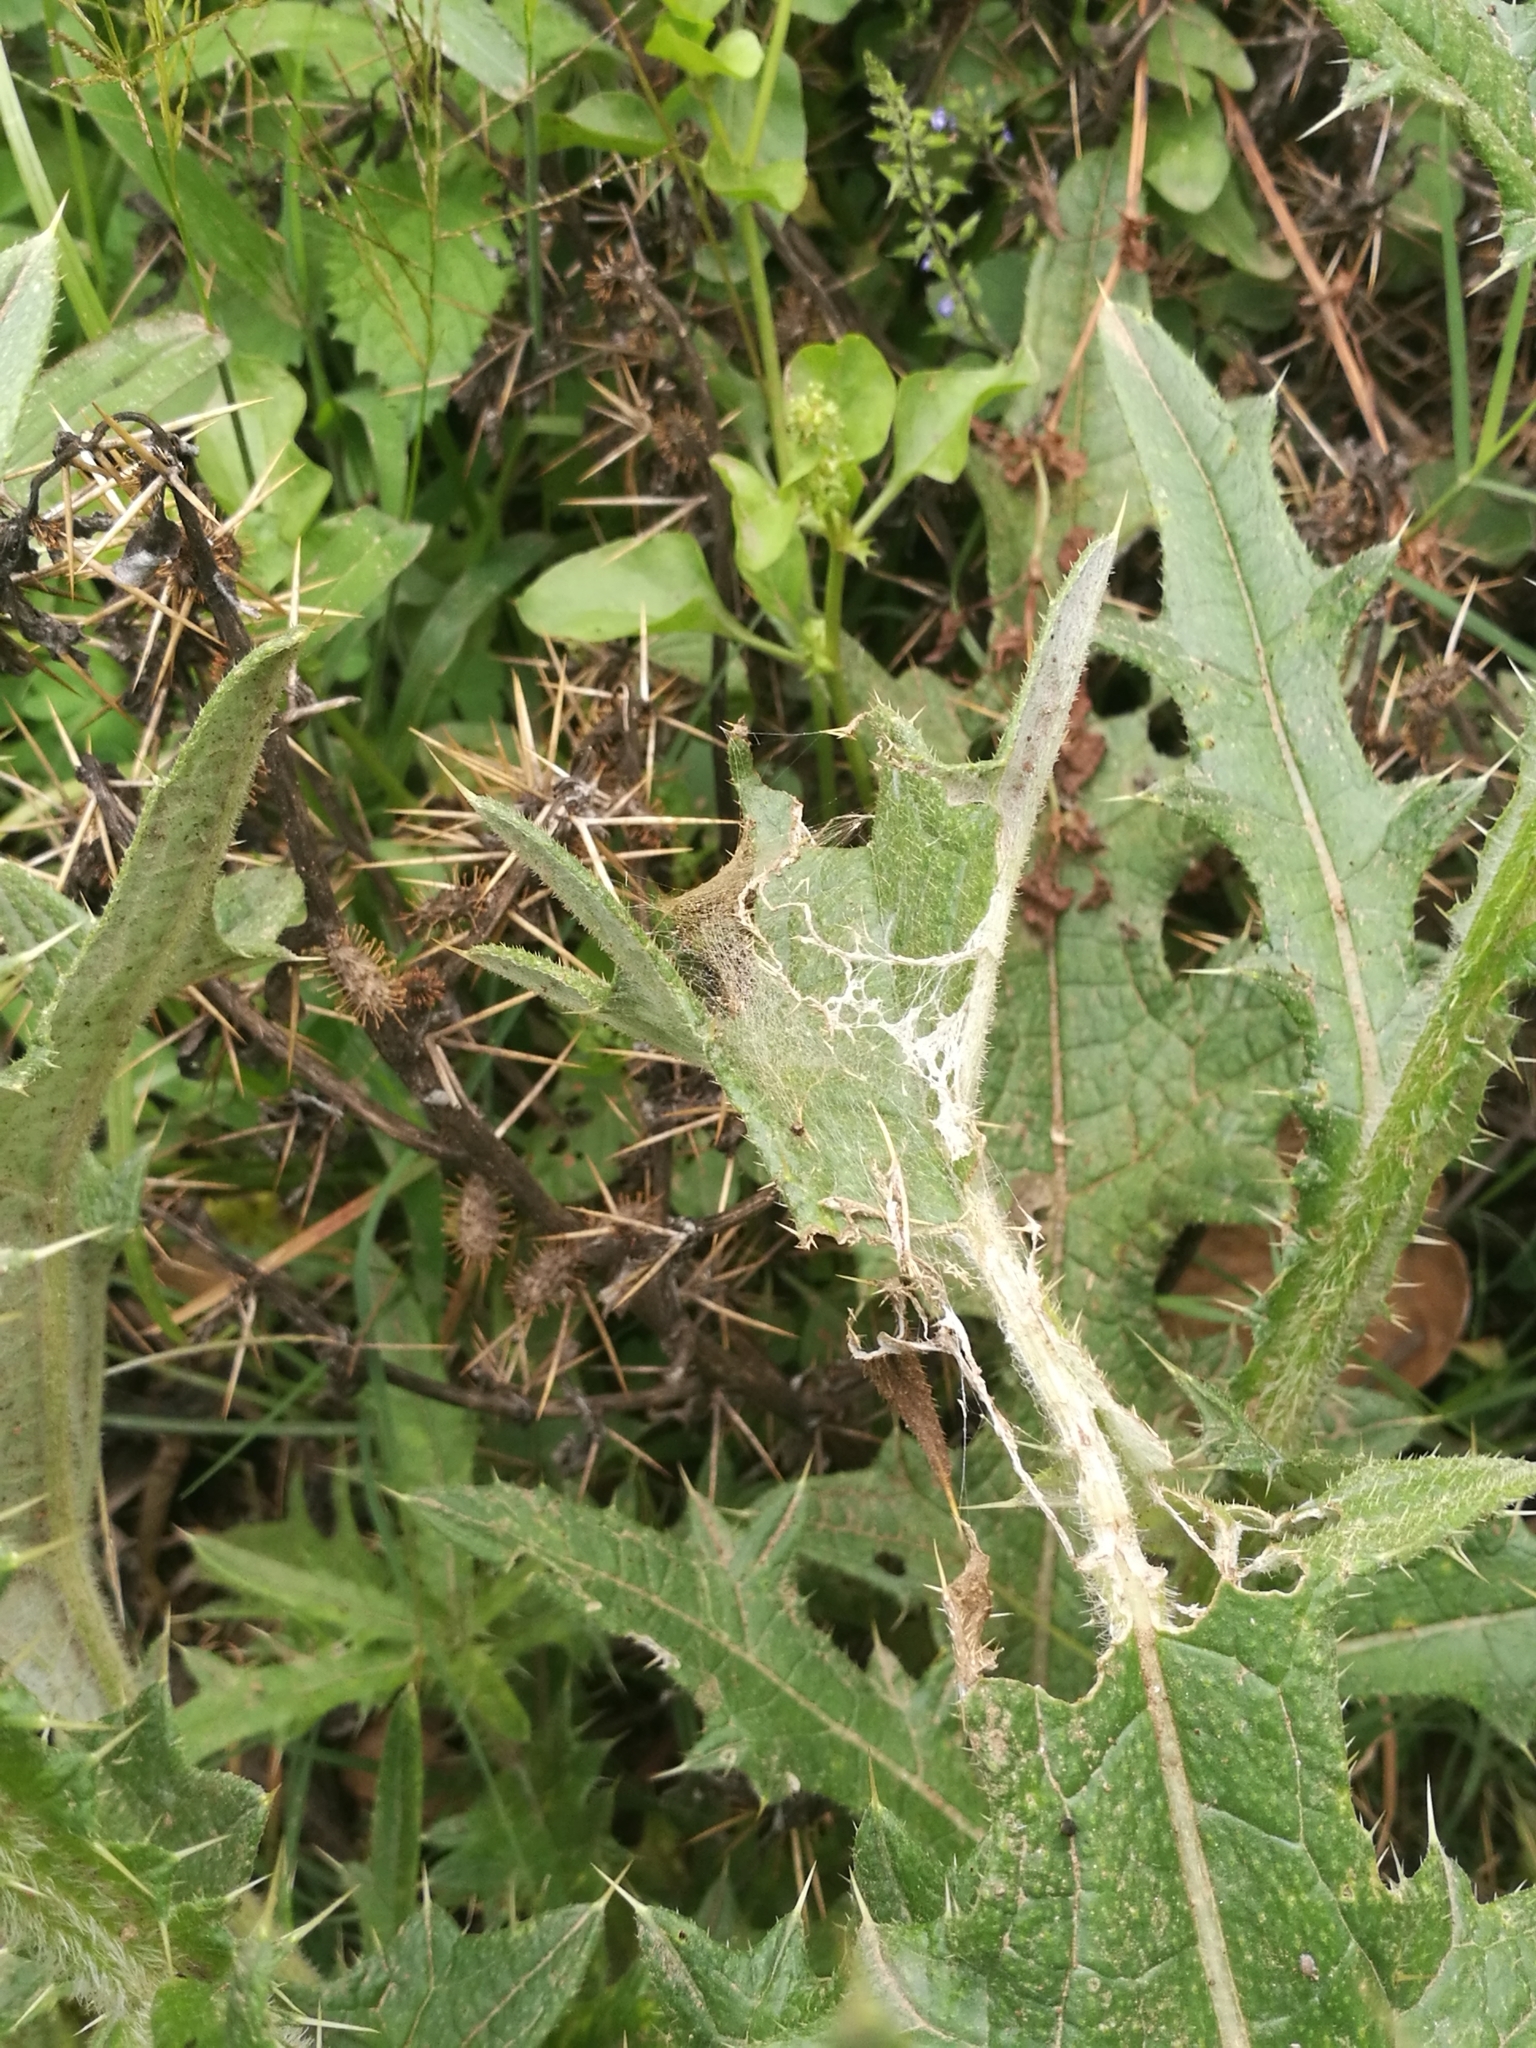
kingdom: Animalia
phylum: Arthropoda
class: Insecta
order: Lepidoptera
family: Nymphalidae
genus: Vanessa
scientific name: Vanessa cardui
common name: Painted lady
